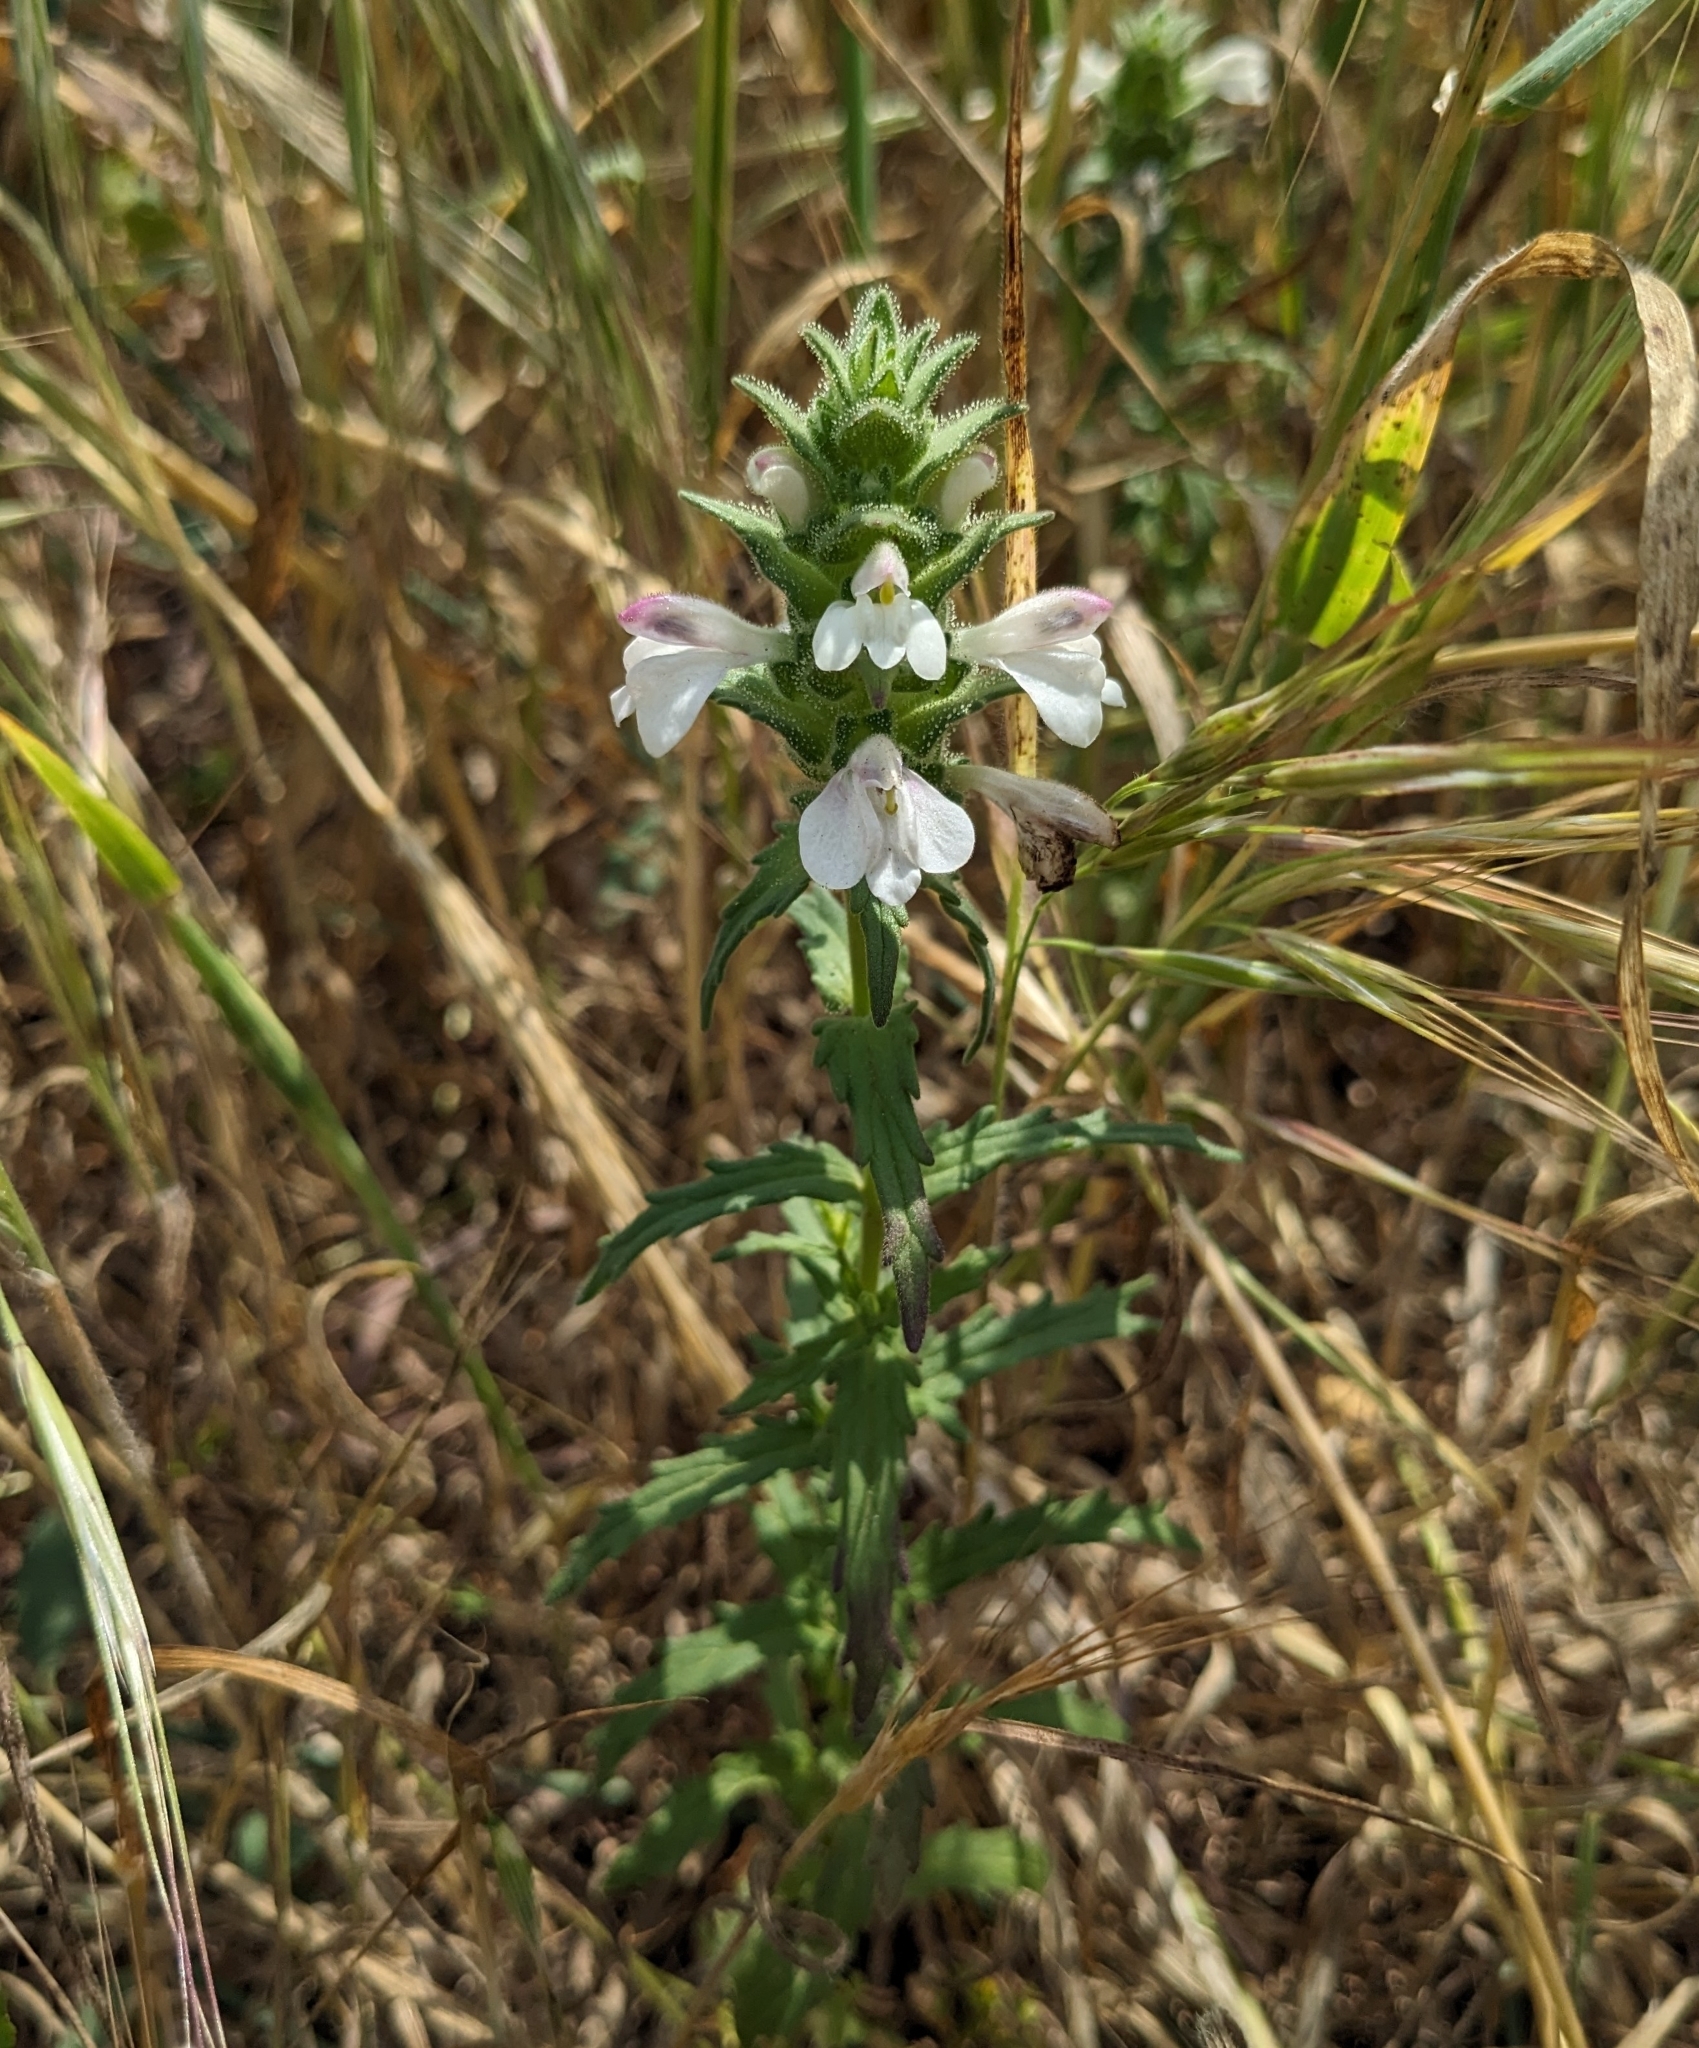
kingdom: Plantae
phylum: Tracheophyta
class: Magnoliopsida
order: Lamiales
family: Orobanchaceae
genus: Bellardia
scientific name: Bellardia trixago
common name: Mediterranean lineseed
